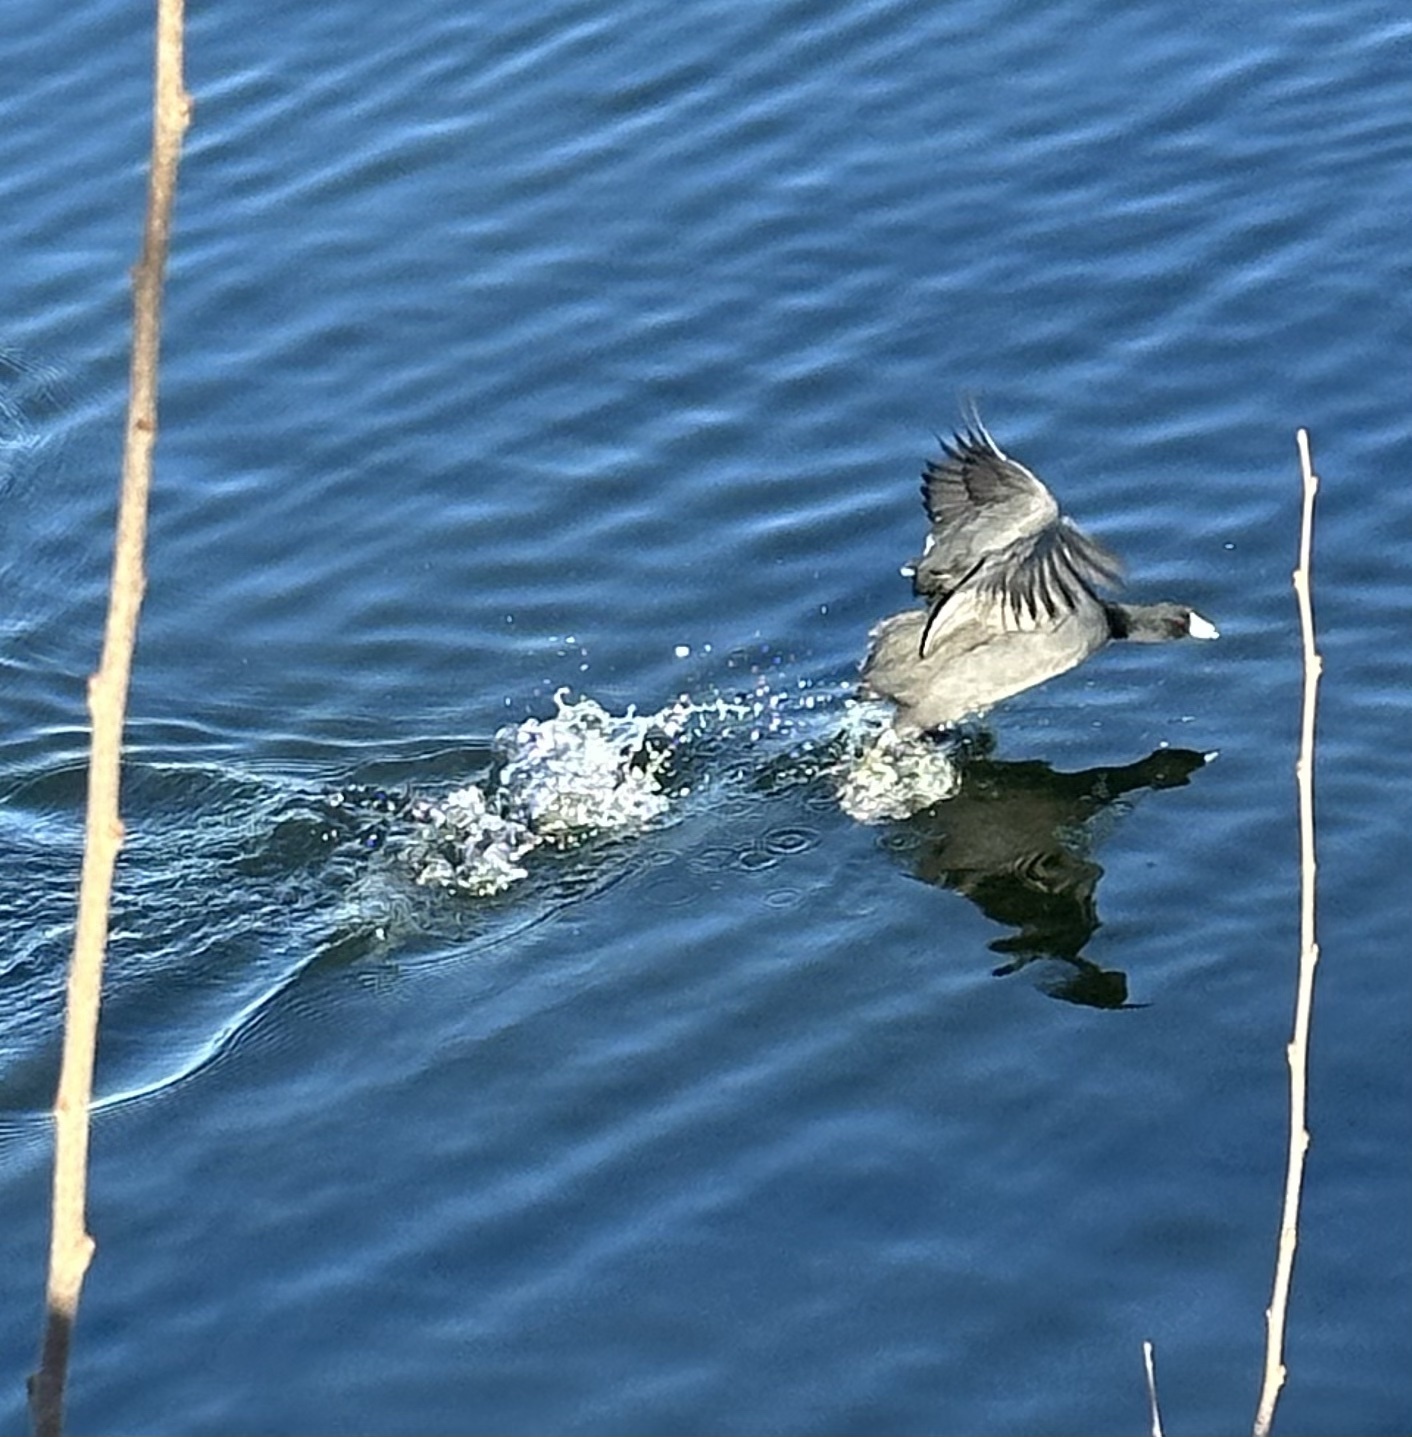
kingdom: Animalia
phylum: Chordata
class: Aves
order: Gruiformes
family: Rallidae
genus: Fulica
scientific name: Fulica americana
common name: American coot
